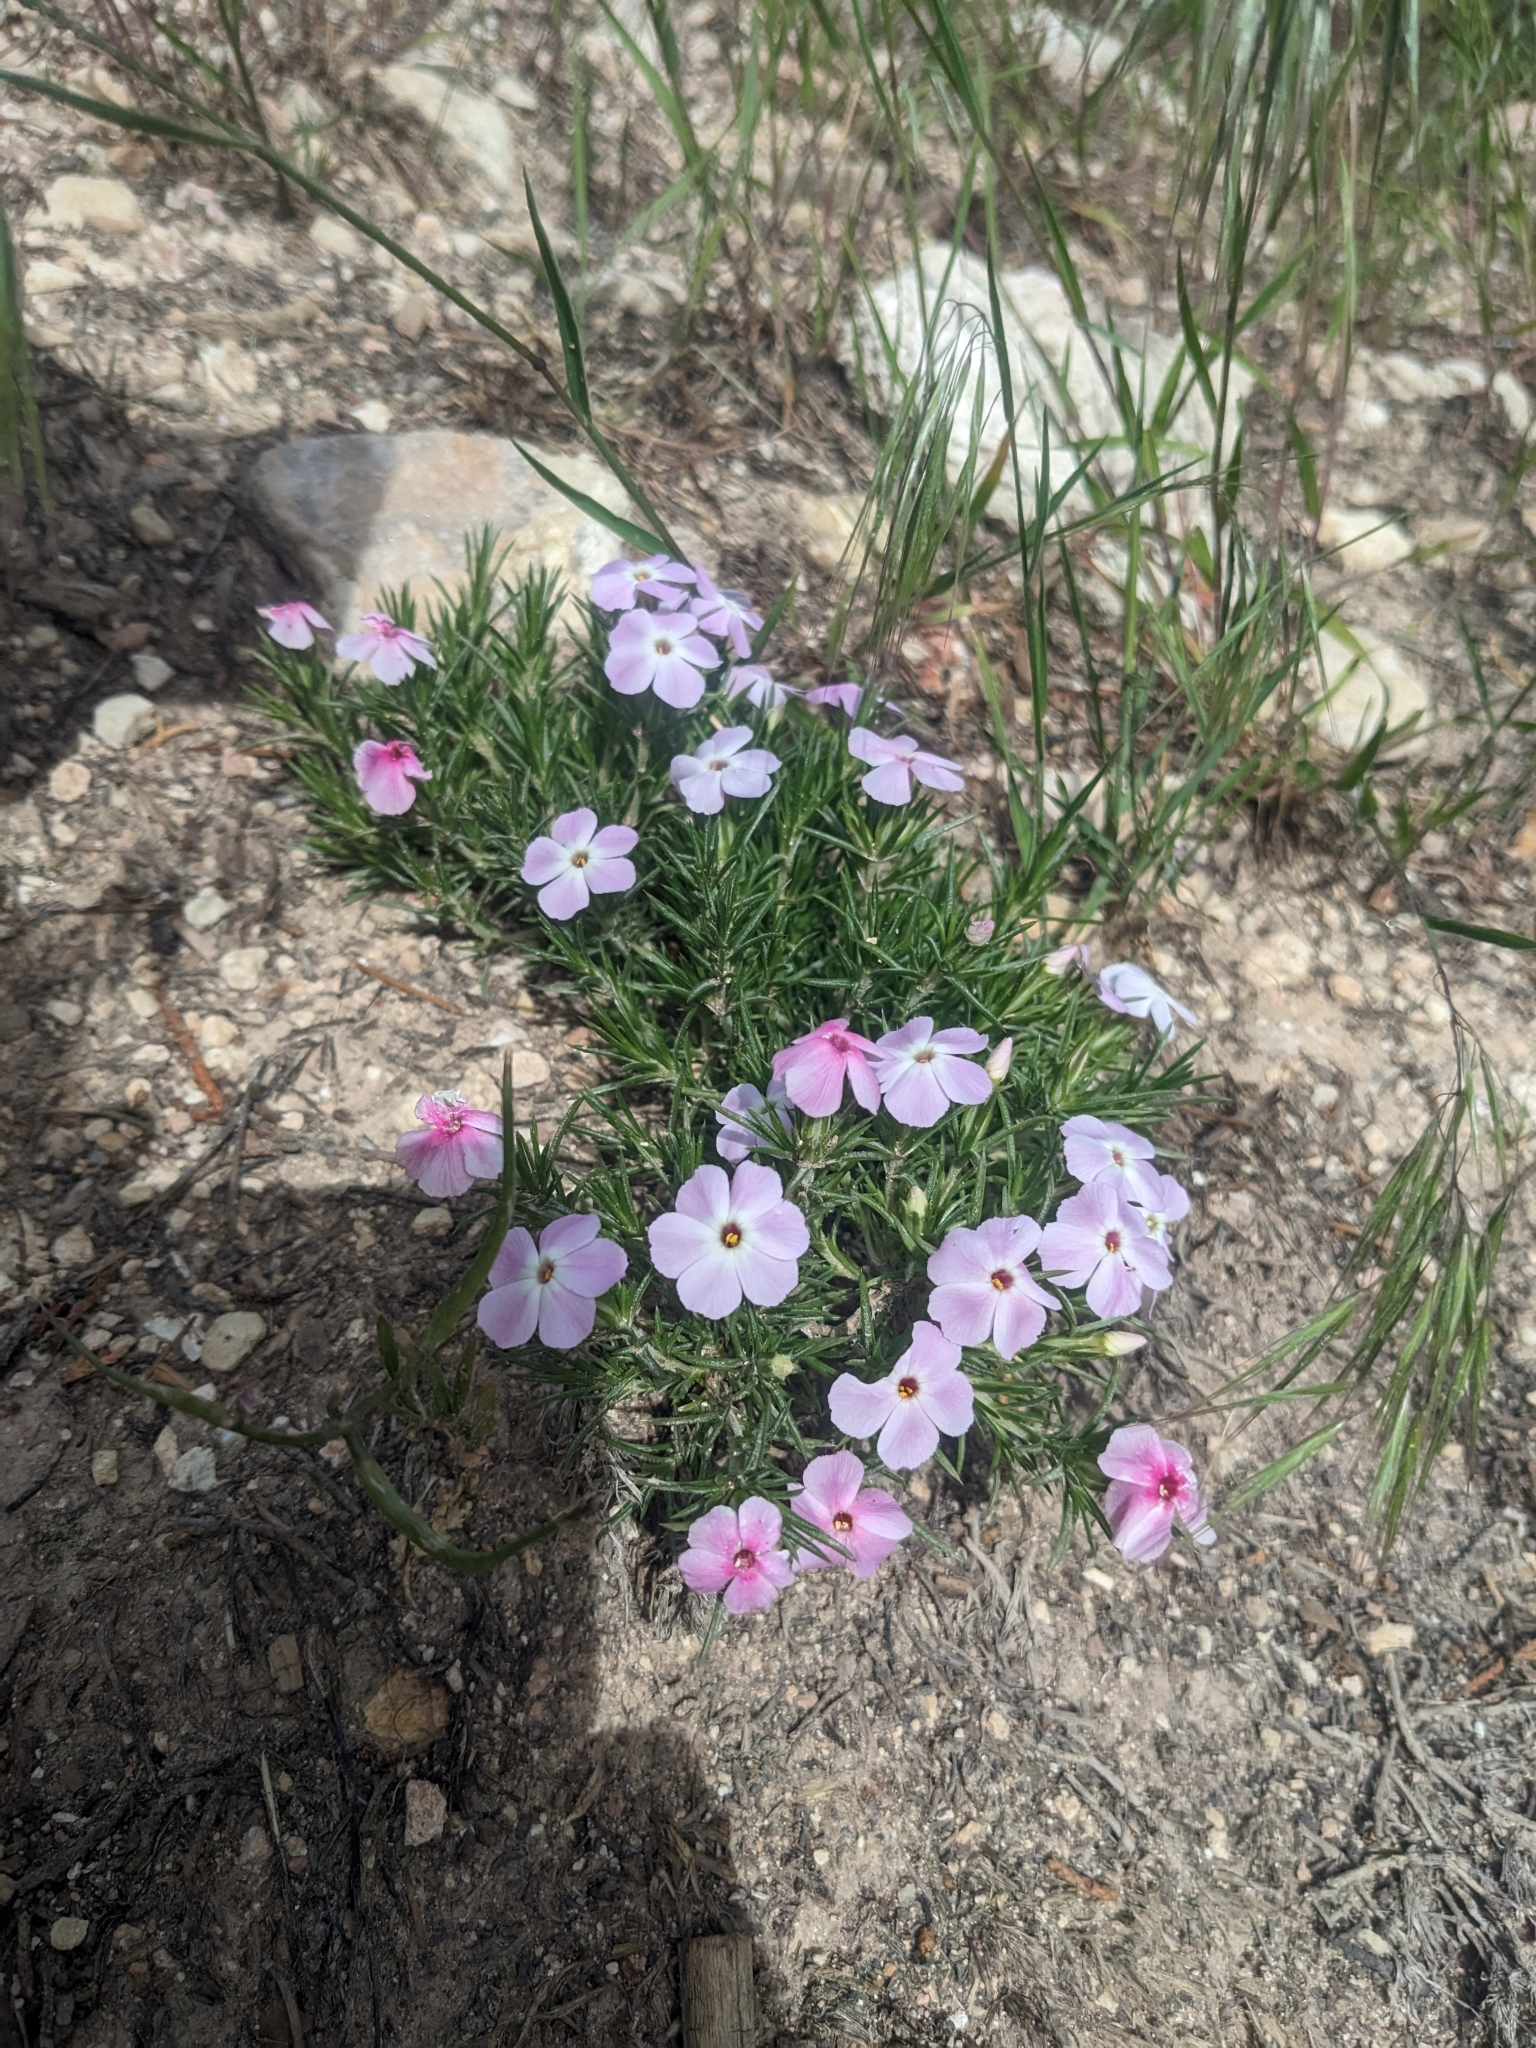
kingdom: Plantae
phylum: Tracheophyta
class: Magnoliopsida
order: Ericales
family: Polemoniaceae
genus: Phlox
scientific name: Phlox austromontana
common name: Desert phlox
